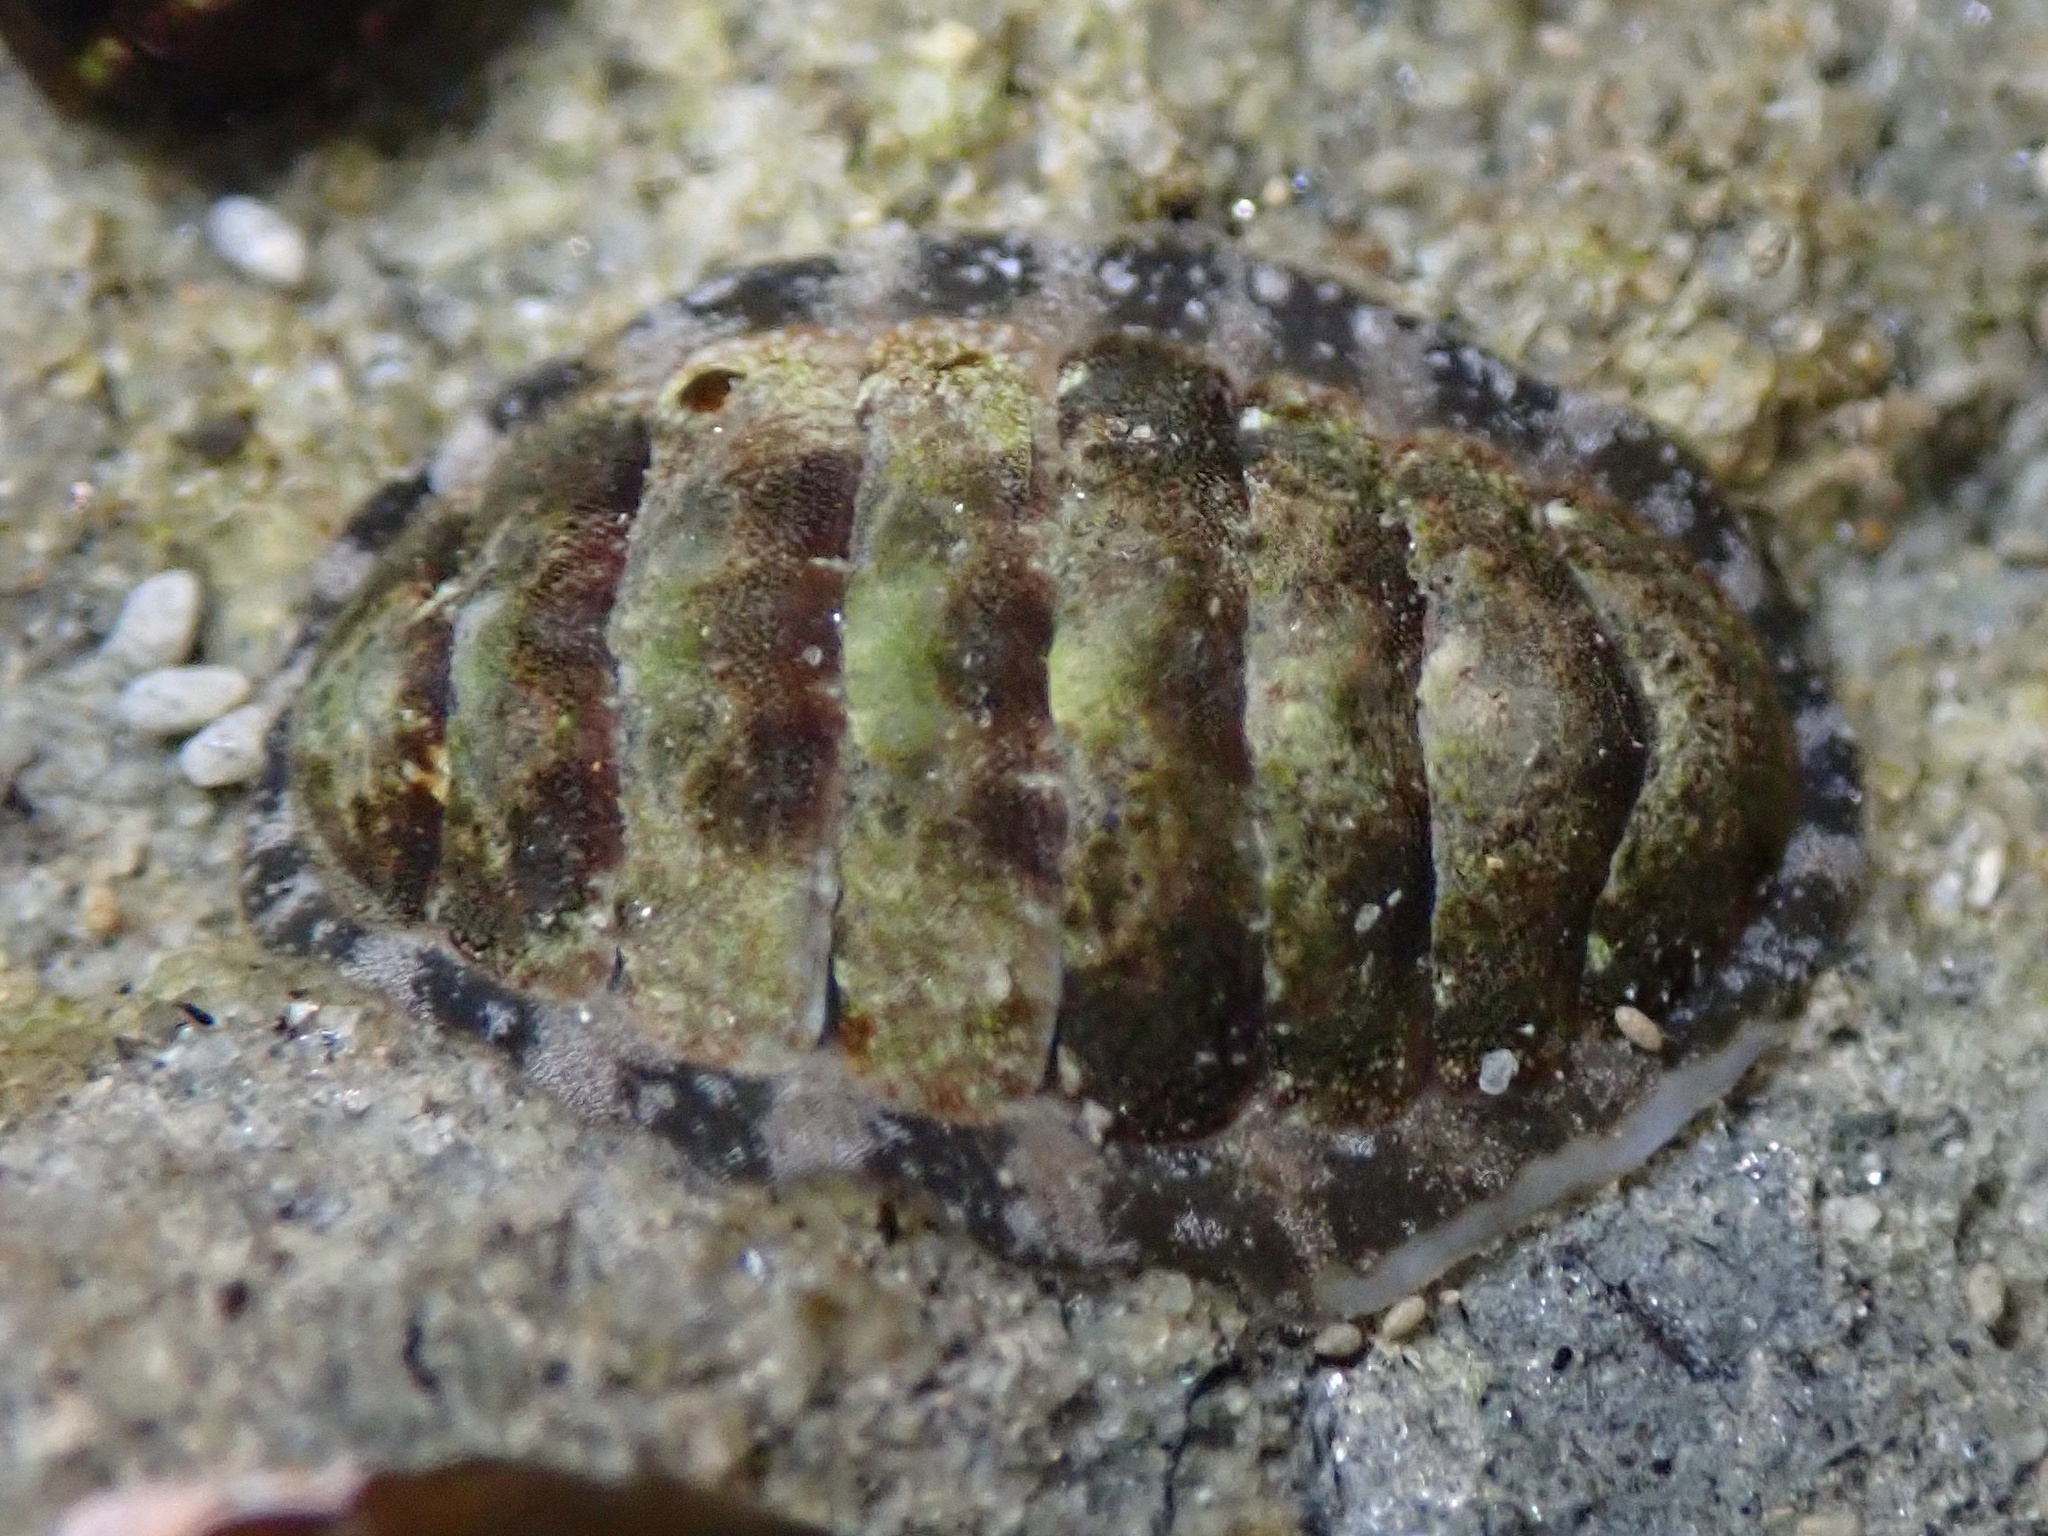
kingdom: Animalia
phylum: Mollusca
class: Polyplacophora
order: Chitonida
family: Tonicellidae
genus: Cyanoplax
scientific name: Cyanoplax hartwegii
